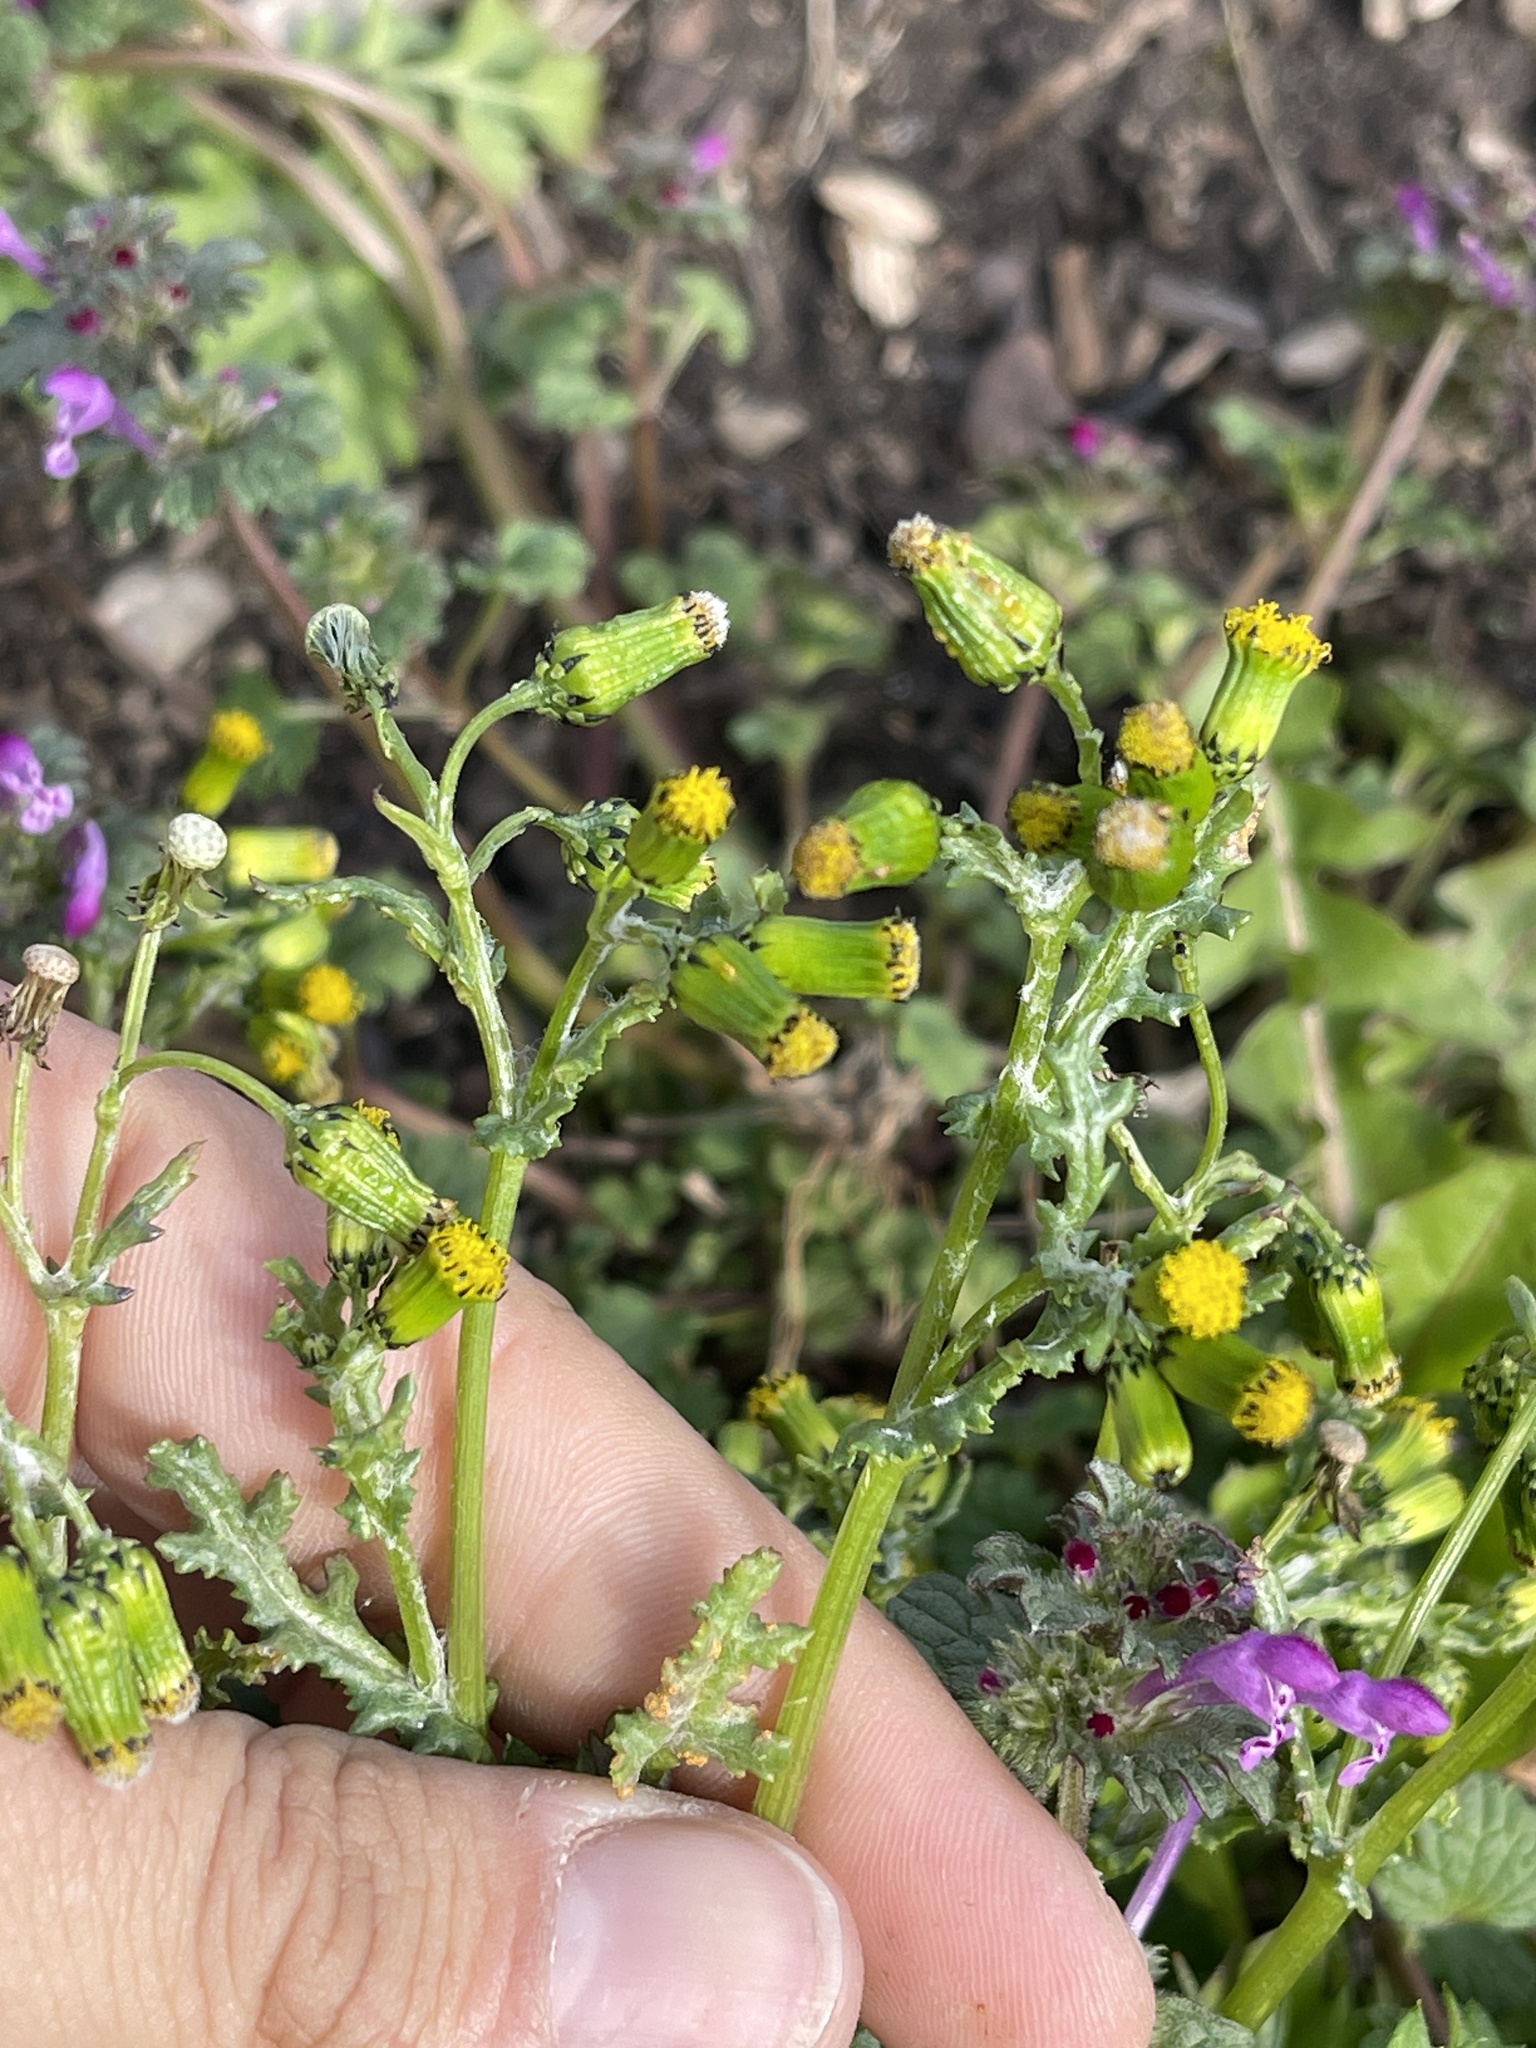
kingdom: Plantae
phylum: Tracheophyta
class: Magnoliopsida
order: Asterales
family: Asteraceae
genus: Senecio
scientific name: Senecio vulgaris
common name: Old-man-in-the-spring
